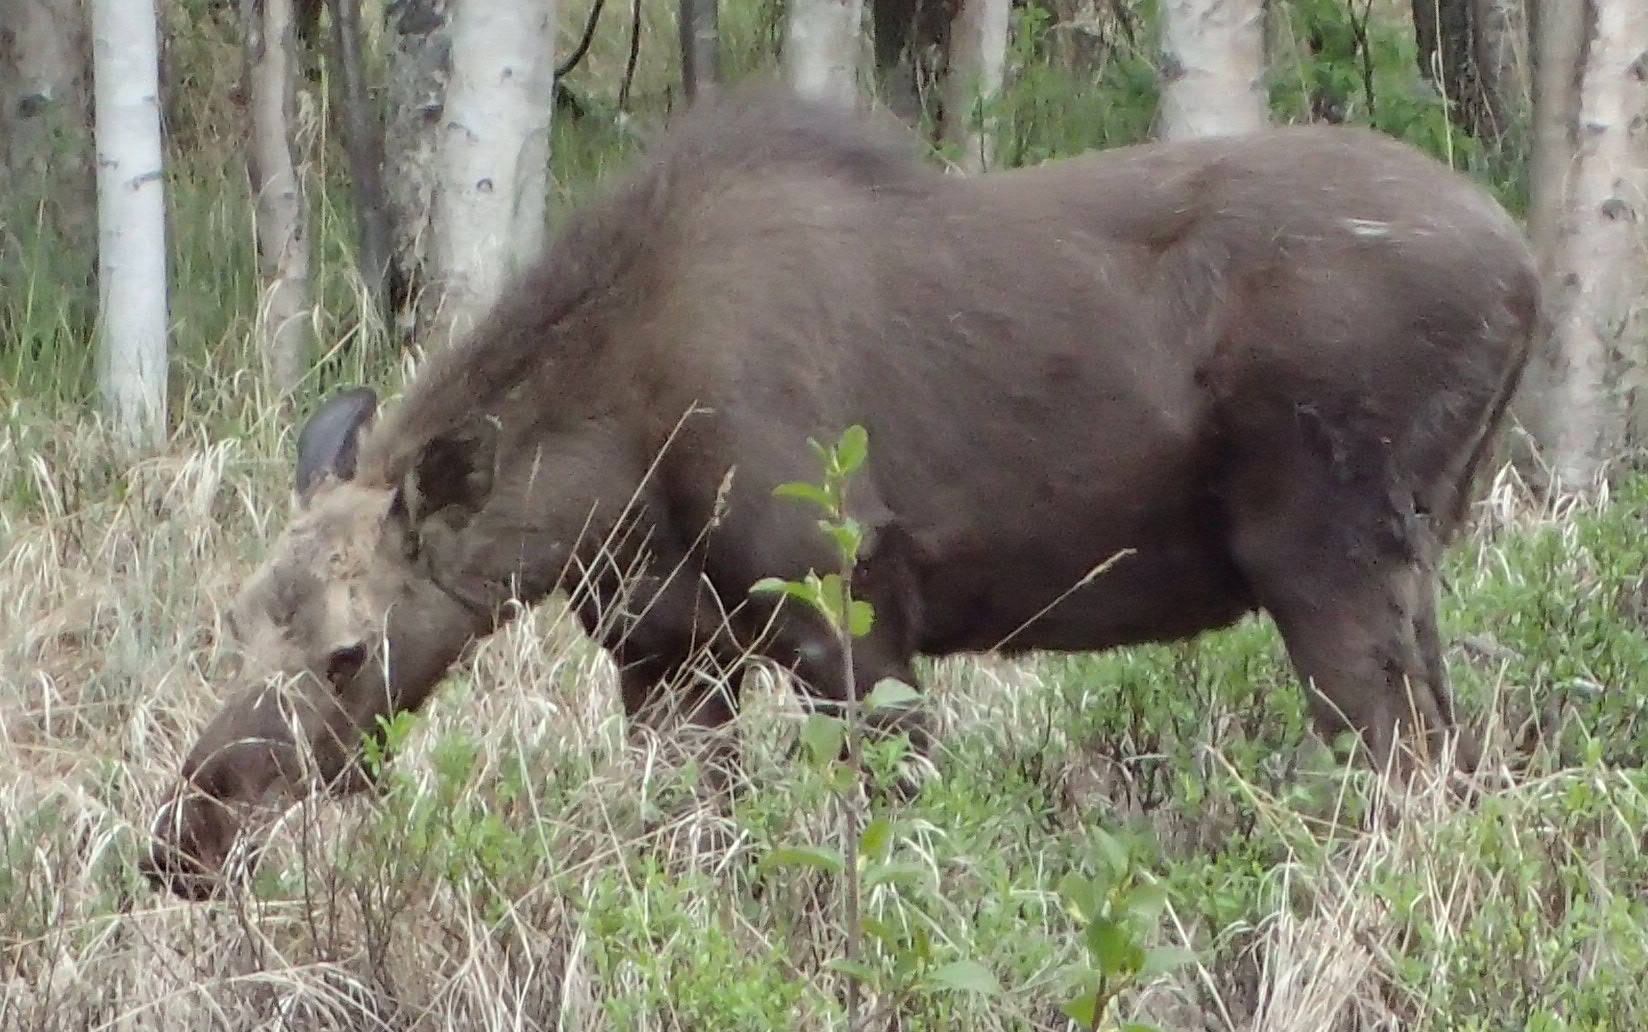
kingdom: Animalia
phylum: Chordata
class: Mammalia
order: Artiodactyla
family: Cervidae
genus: Alces
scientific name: Alces alces
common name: Moose
